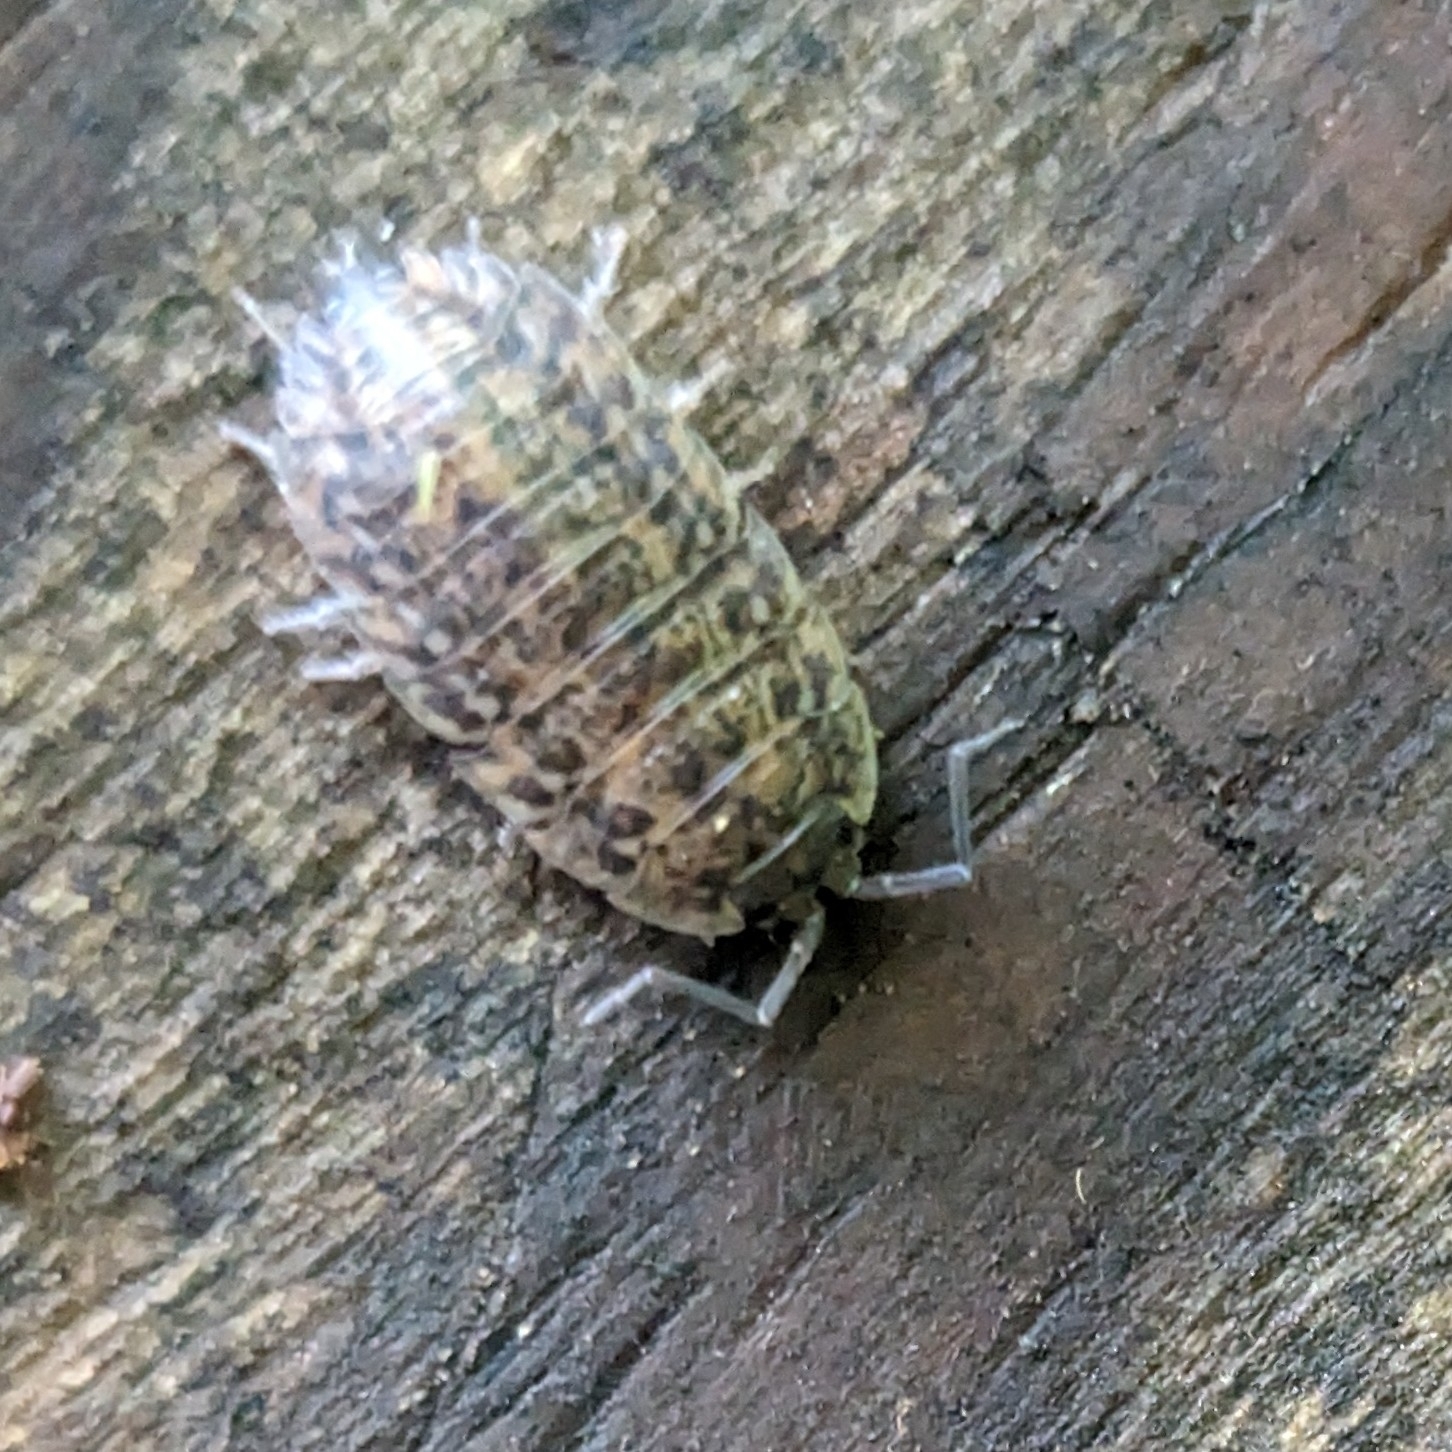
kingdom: Animalia
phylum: Arthropoda
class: Malacostraca
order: Isopoda
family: Trachelipodidae
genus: Trachelipus
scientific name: Trachelipus rathkii
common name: Isopod
